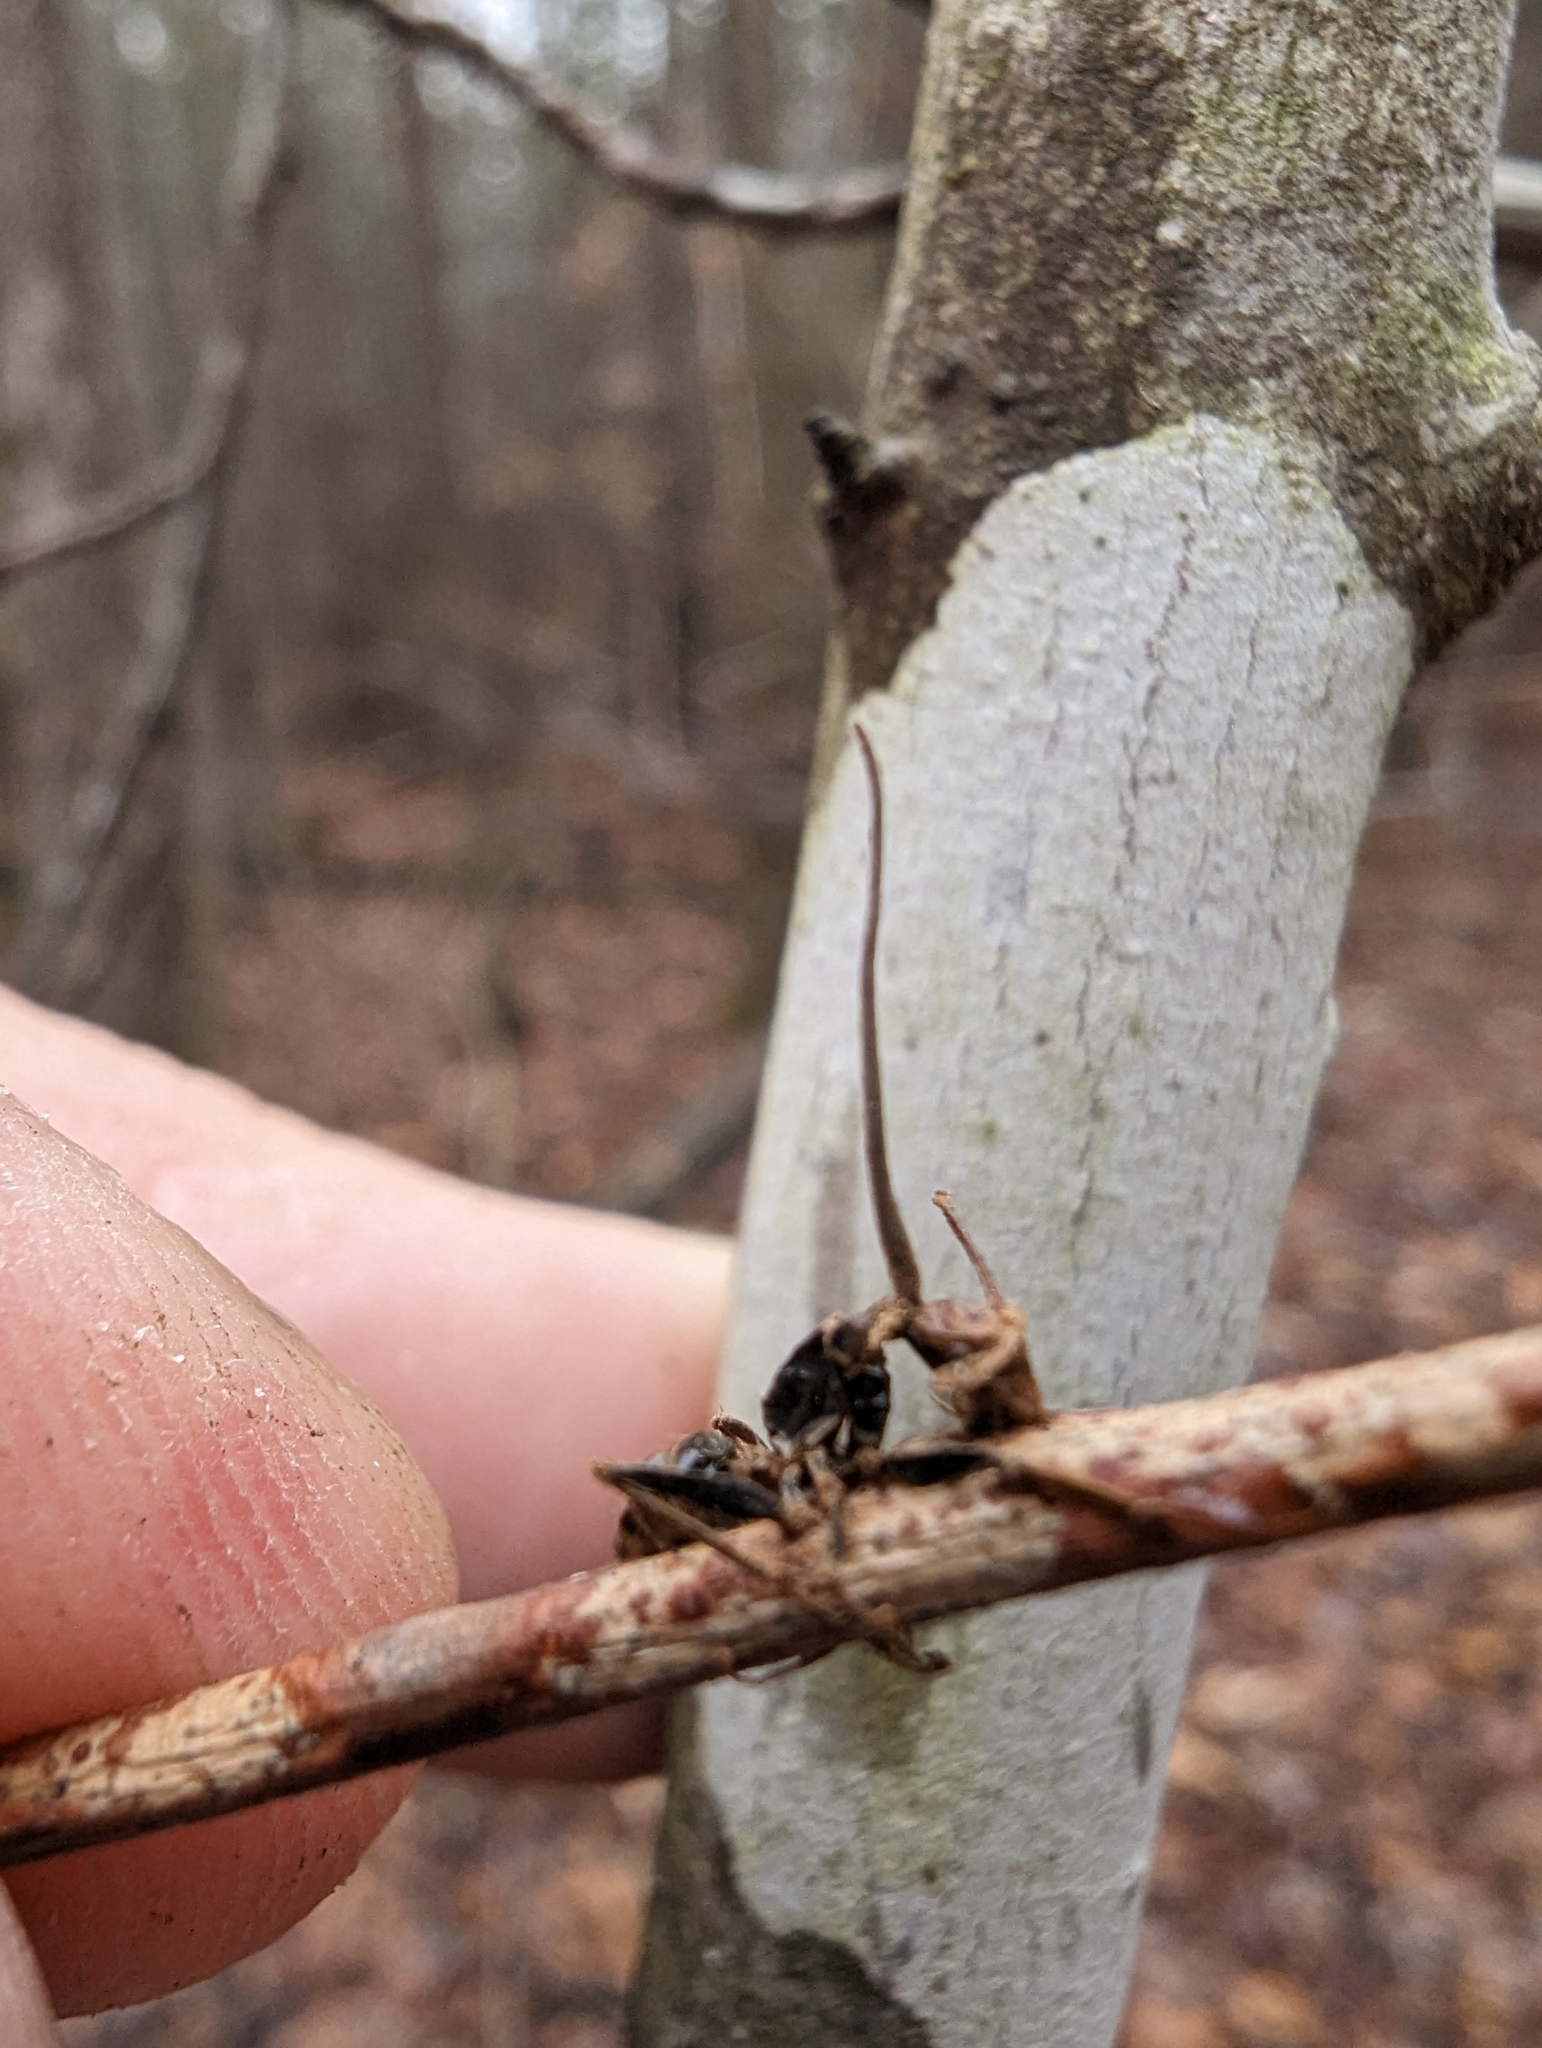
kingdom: Fungi
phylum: Ascomycota
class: Sordariomycetes
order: Hypocreales
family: Ophiocordycipitaceae
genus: Ophiocordyceps
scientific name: Ophiocordyceps kimflemingiae
